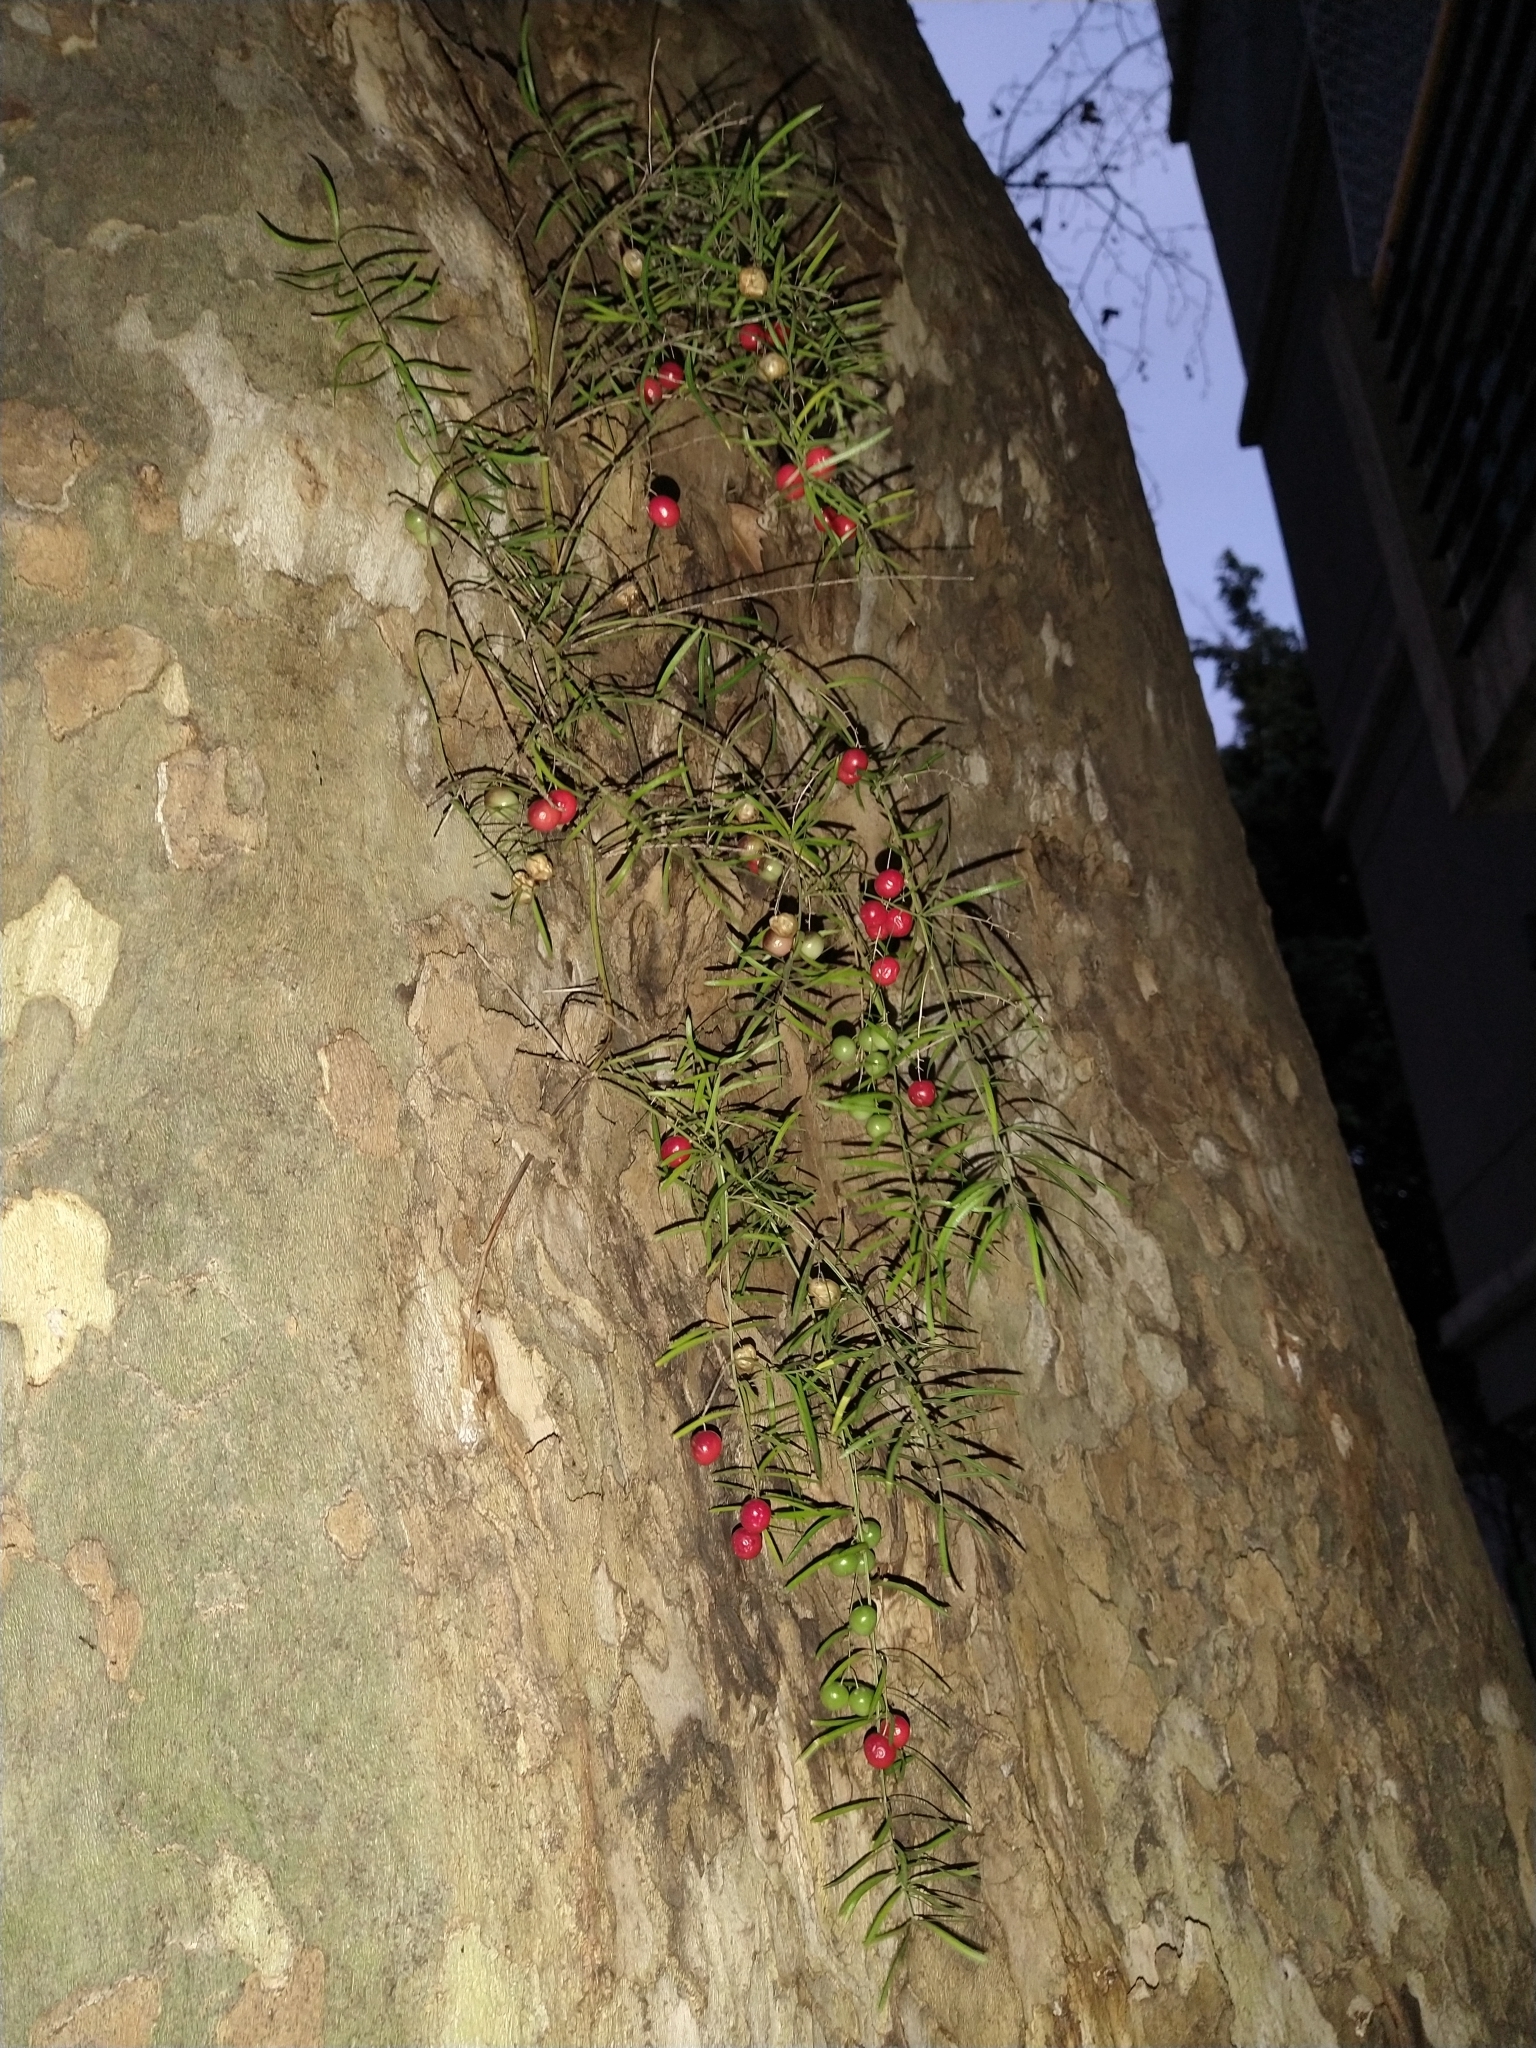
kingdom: Plantae
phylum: Tracheophyta
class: Liliopsida
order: Asparagales
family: Asparagaceae
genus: Asparagus
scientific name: Asparagus aethiopicus
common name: Sprenger's asparagus fern
